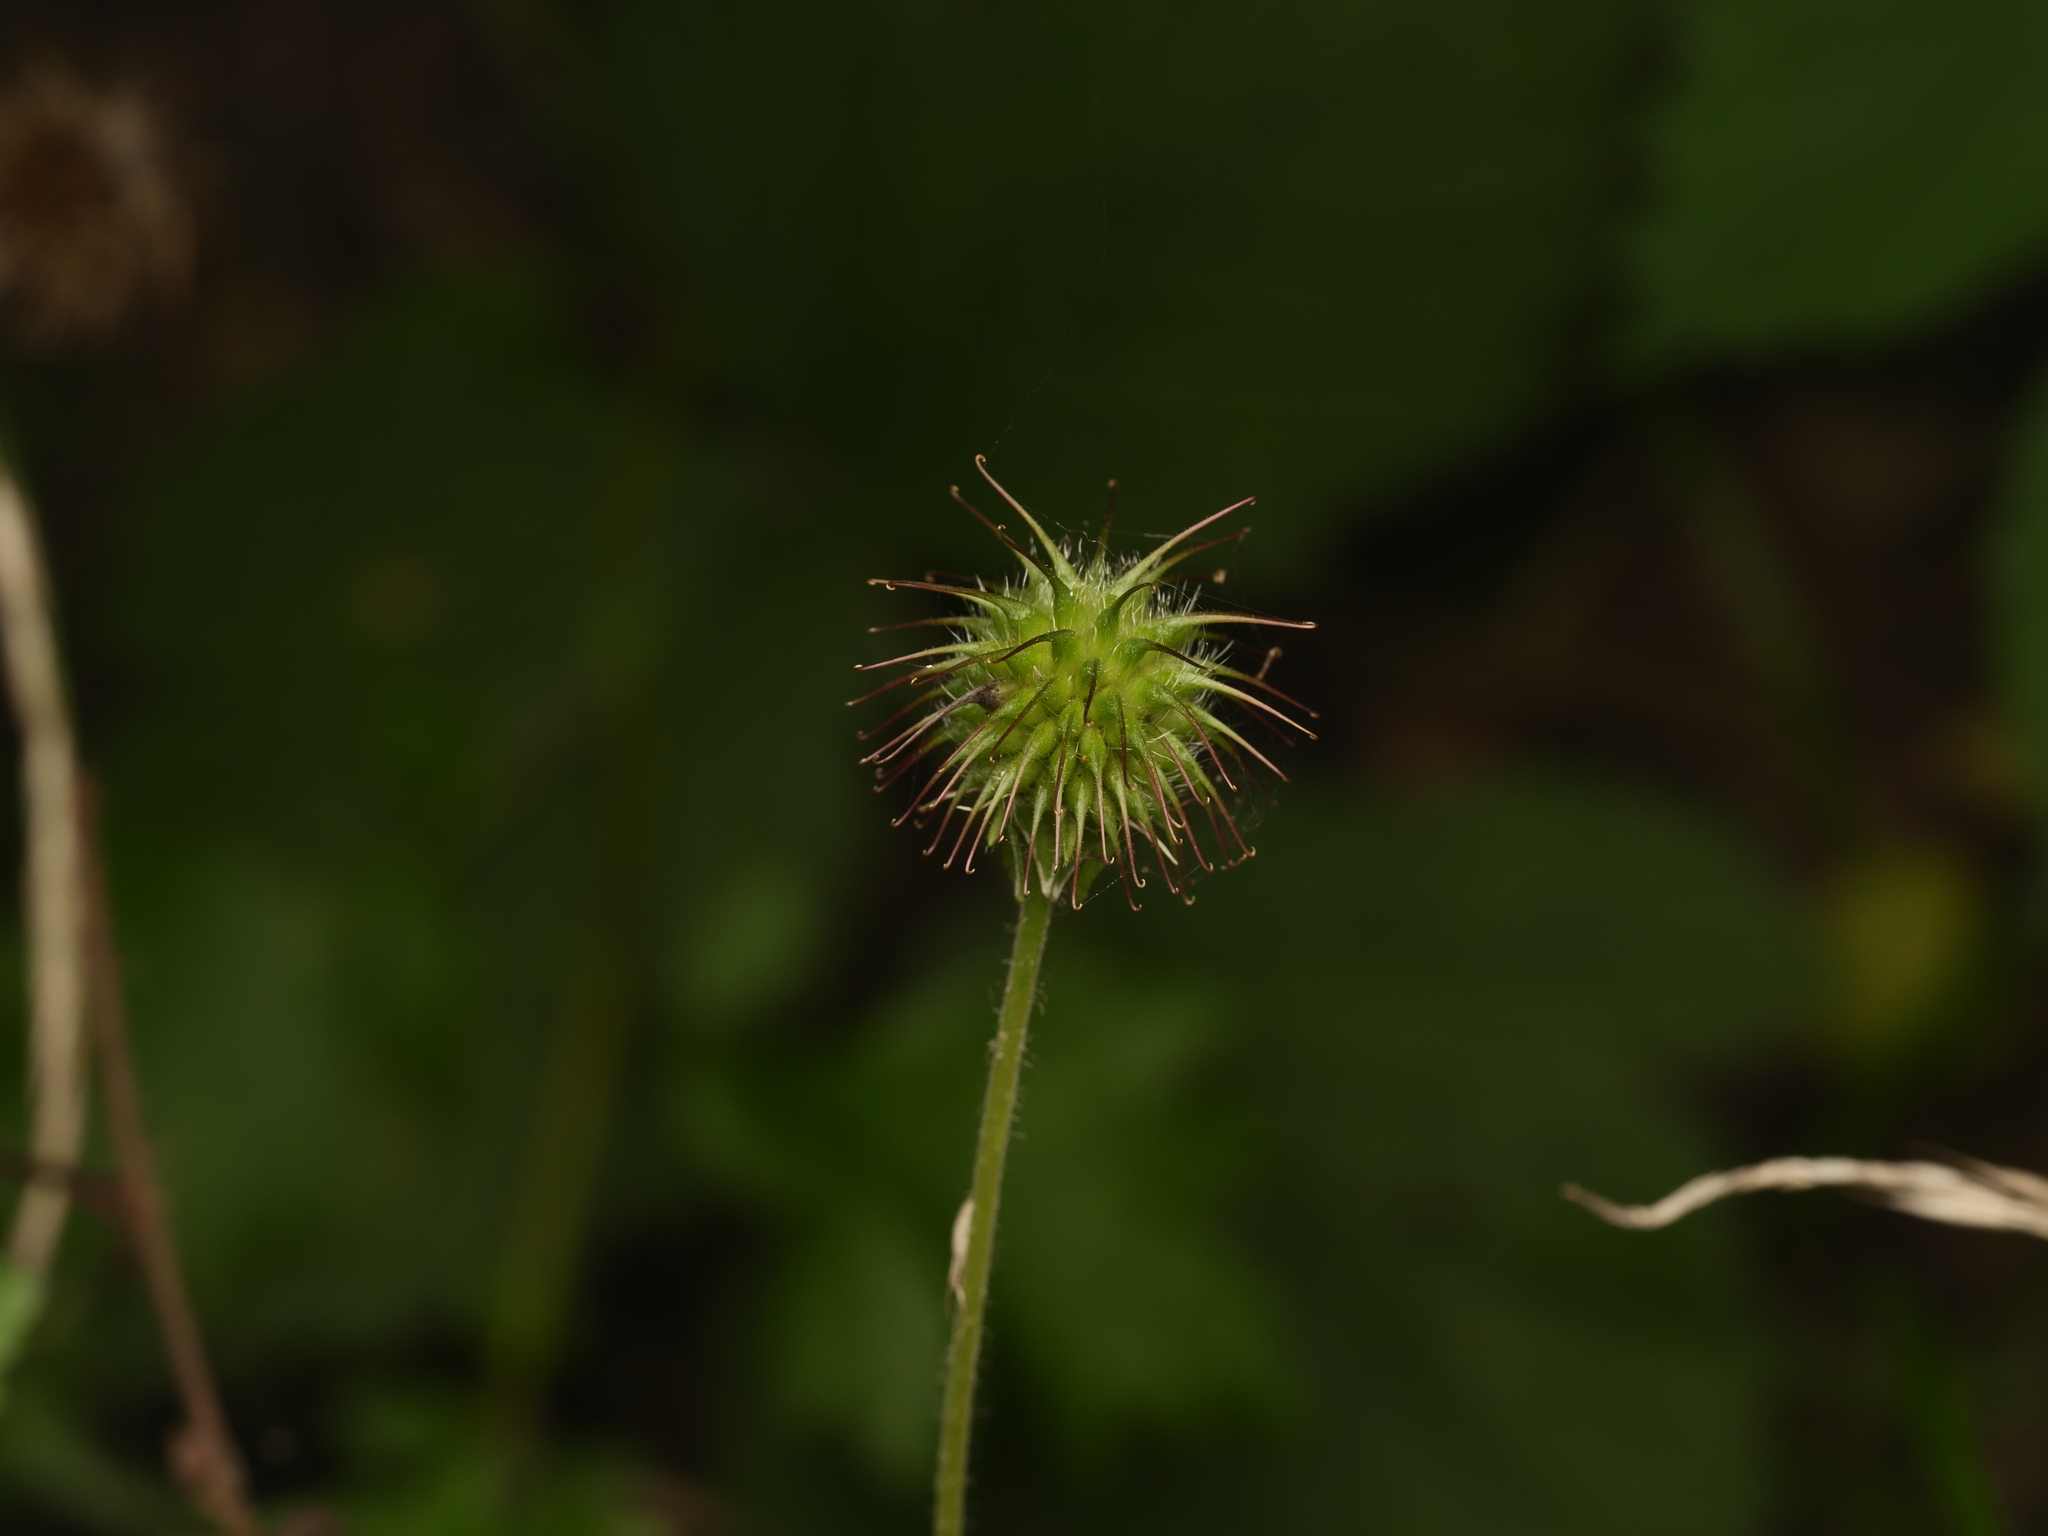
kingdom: Plantae
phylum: Tracheophyta
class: Magnoliopsida
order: Rosales
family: Rosaceae
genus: Geum
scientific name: Geum urbanum
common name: Wood avens
